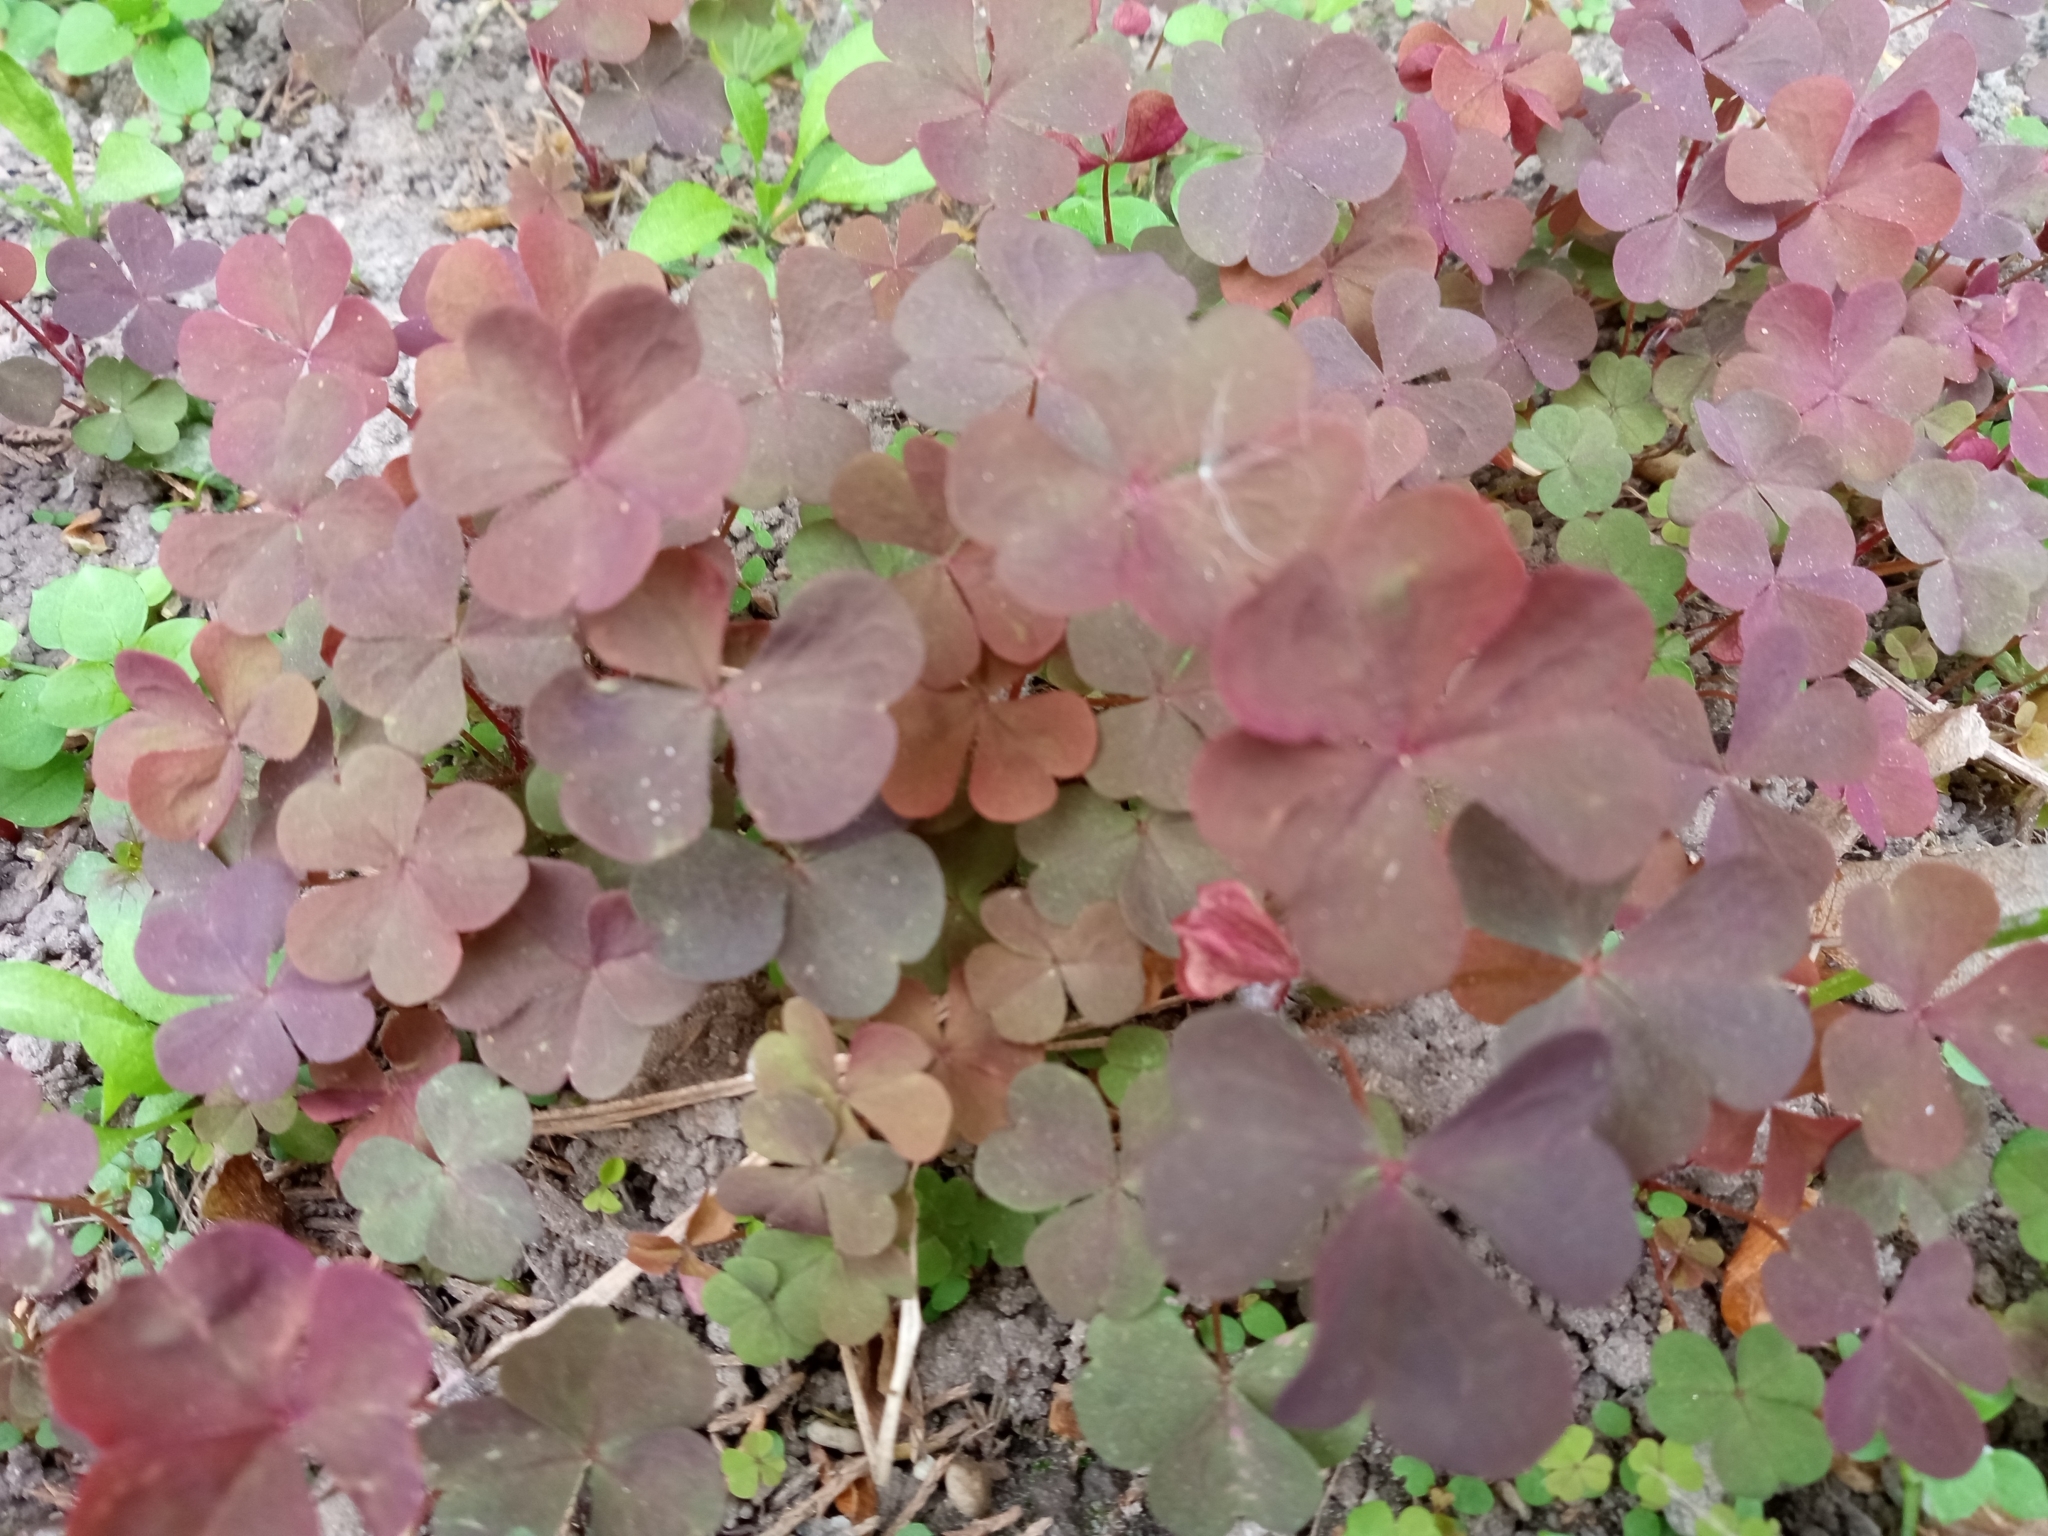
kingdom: Plantae
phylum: Tracheophyta
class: Magnoliopsida
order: Oxalidales
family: Oxalidaceae
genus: Oxalis
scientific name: Oxalis stricta
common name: Upright yellow-sorrel
